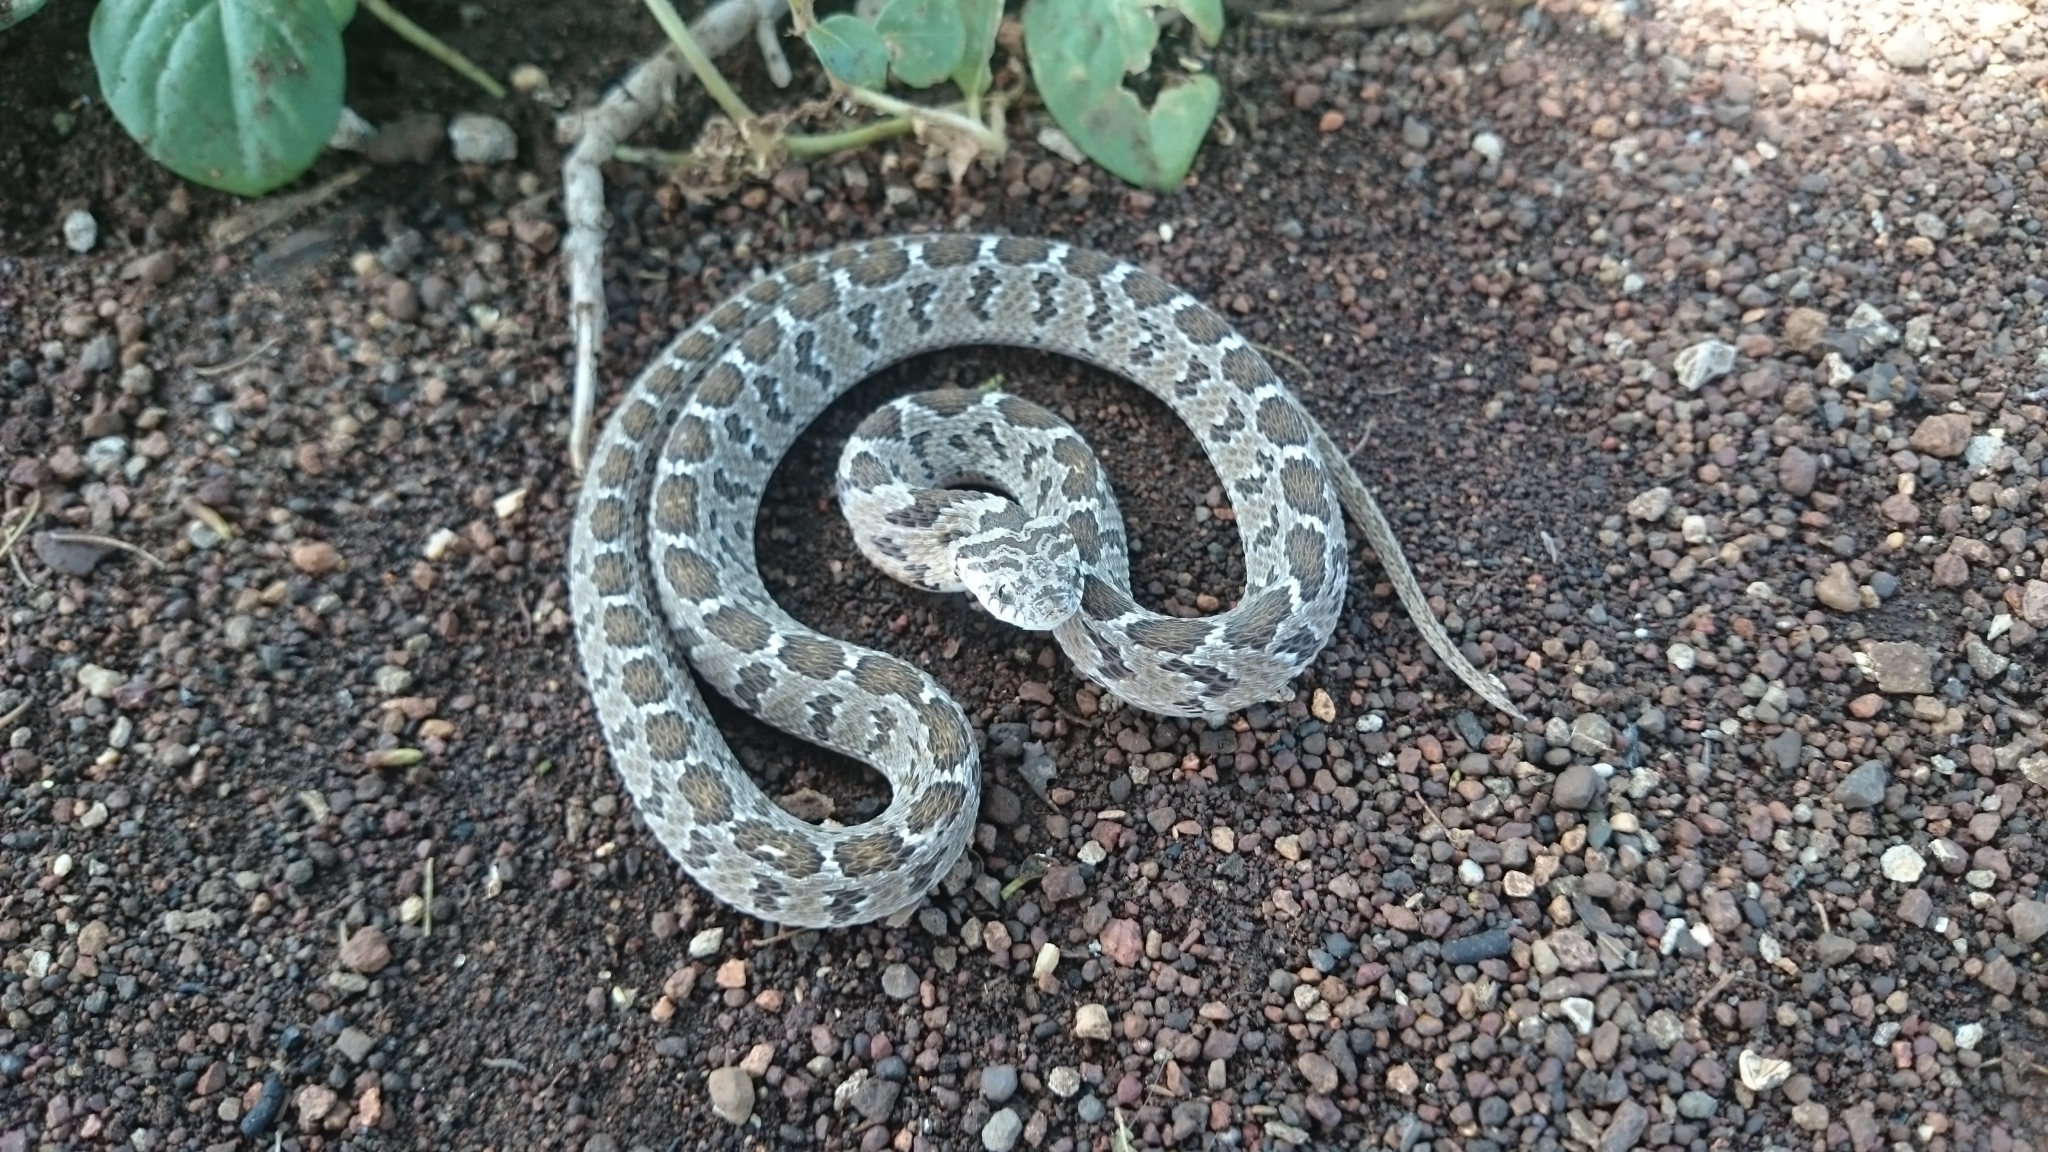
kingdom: Animalia
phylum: Chordata
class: Squamata
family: Colubridae
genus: Dasypeltis
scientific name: Dasypeltis scabra
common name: Common egg eater
